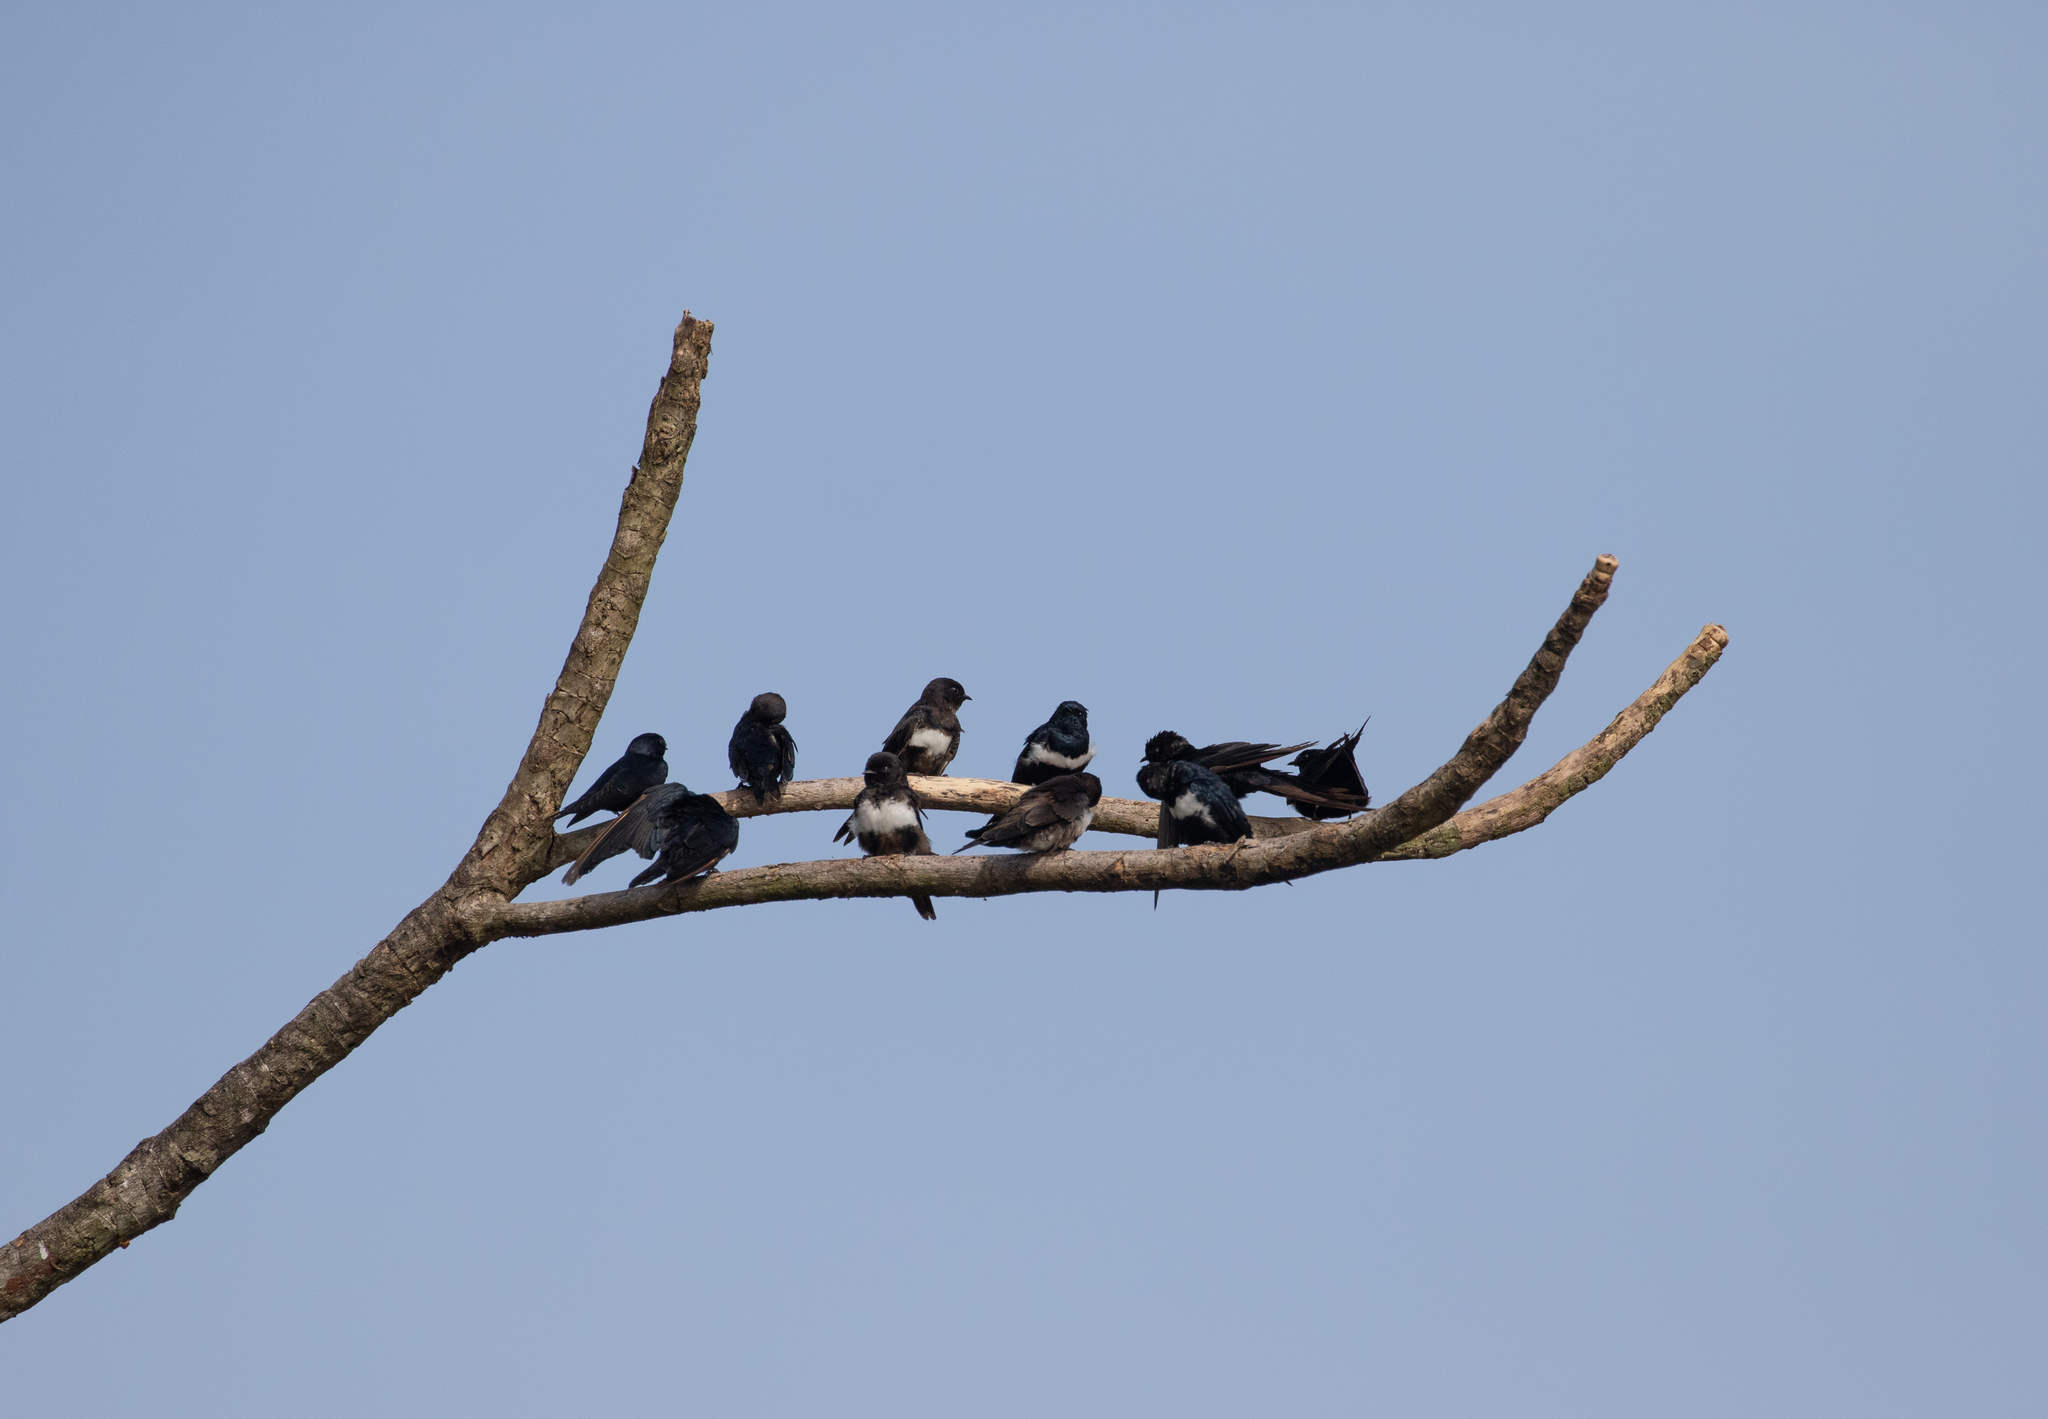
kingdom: Animalia
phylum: Chordata
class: Aves
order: Passeriformes
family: Hirundinidae
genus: Atticora
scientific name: Atticora fasciata
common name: White-banded swallow
